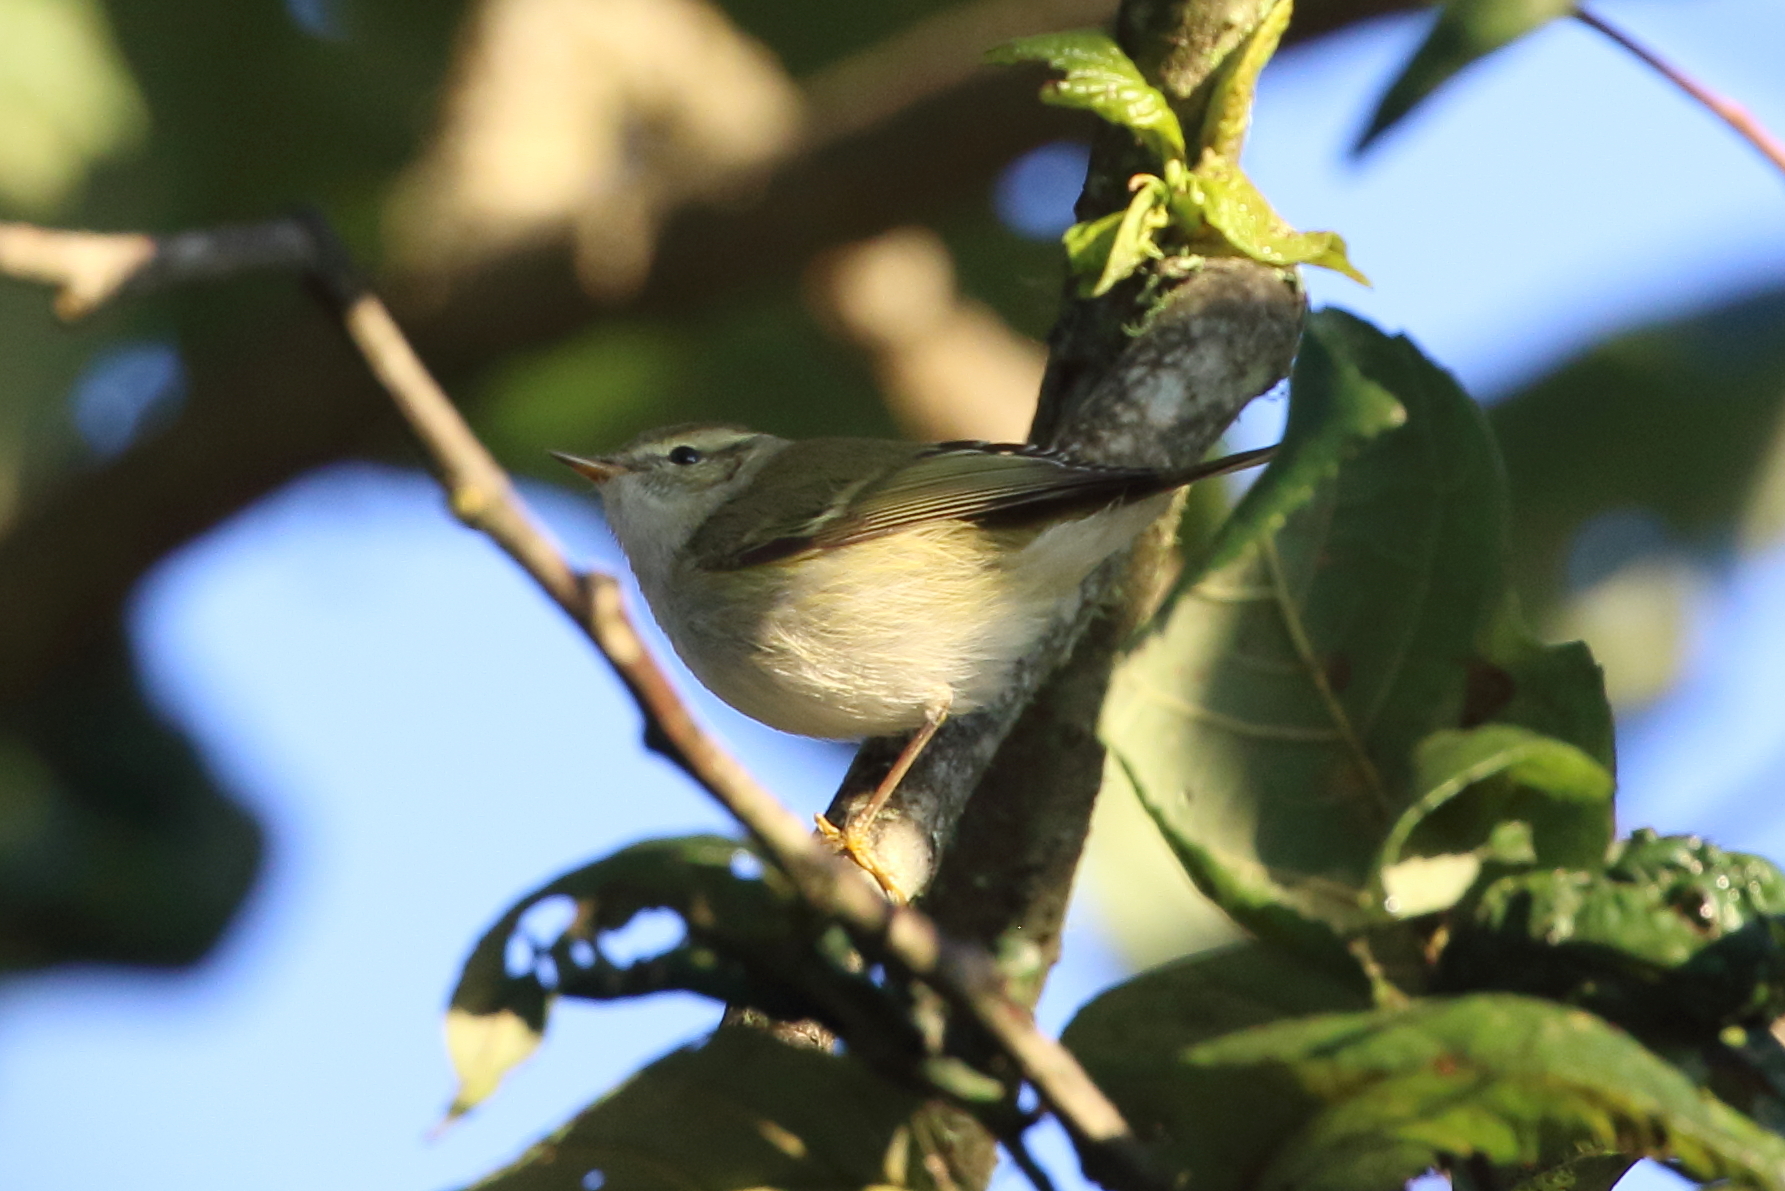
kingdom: Animalia
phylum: Chordata
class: Aves
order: Passeriformes
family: Phylloscopidae
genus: Phylloscopus
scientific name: Phylloscopus inornatus
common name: Yellow-browed warbler
